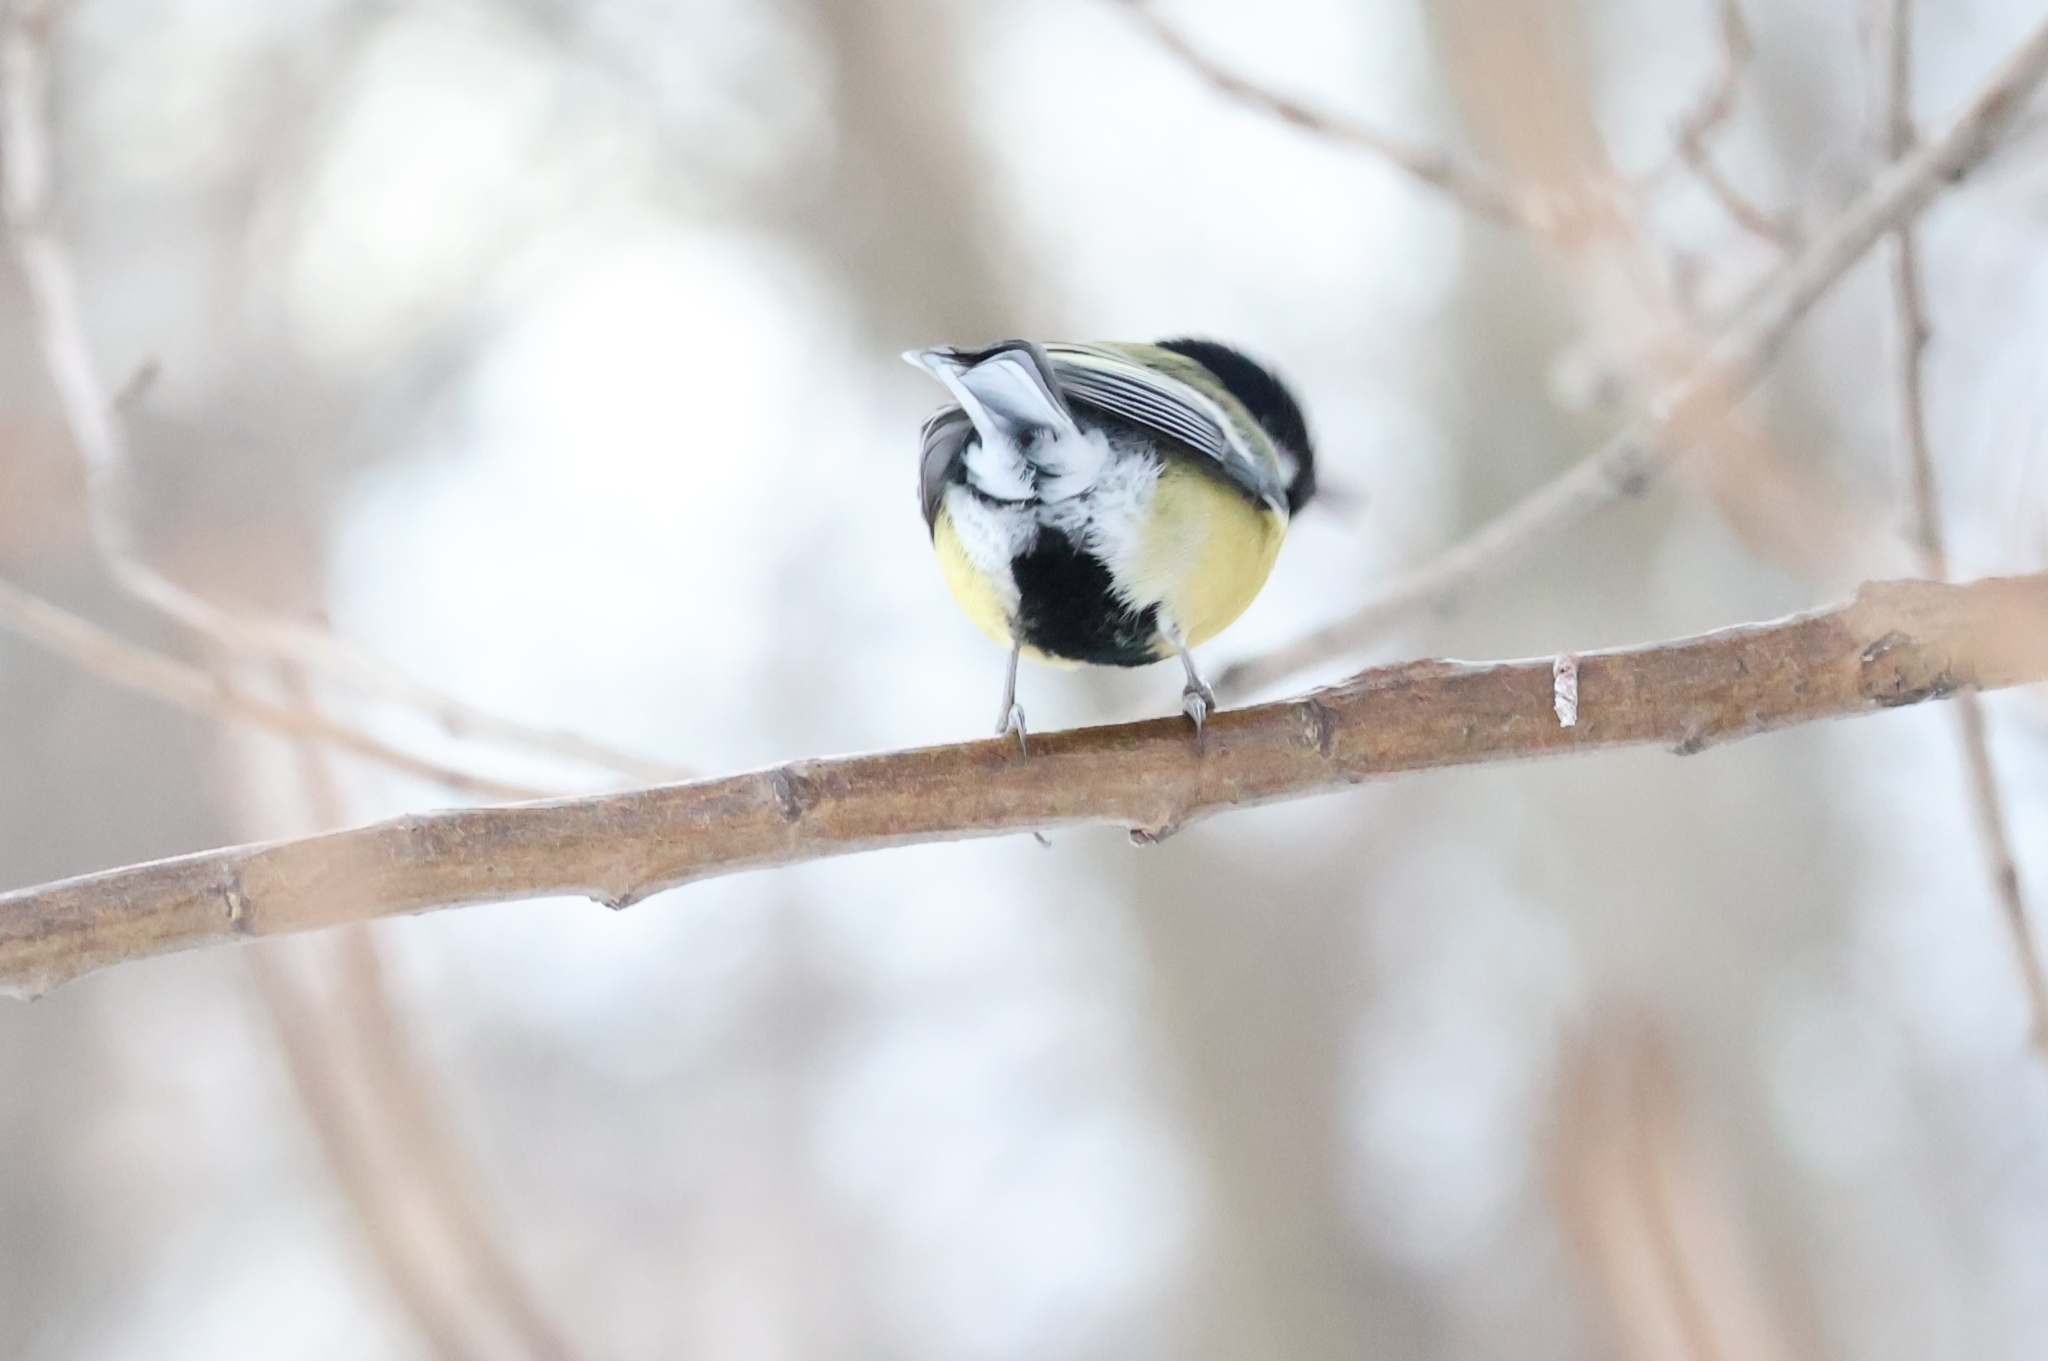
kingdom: Animalia
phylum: Chordata
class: Aves
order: Passeriformes
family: Paridae
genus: Parus
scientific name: Parus major
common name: Great tit
